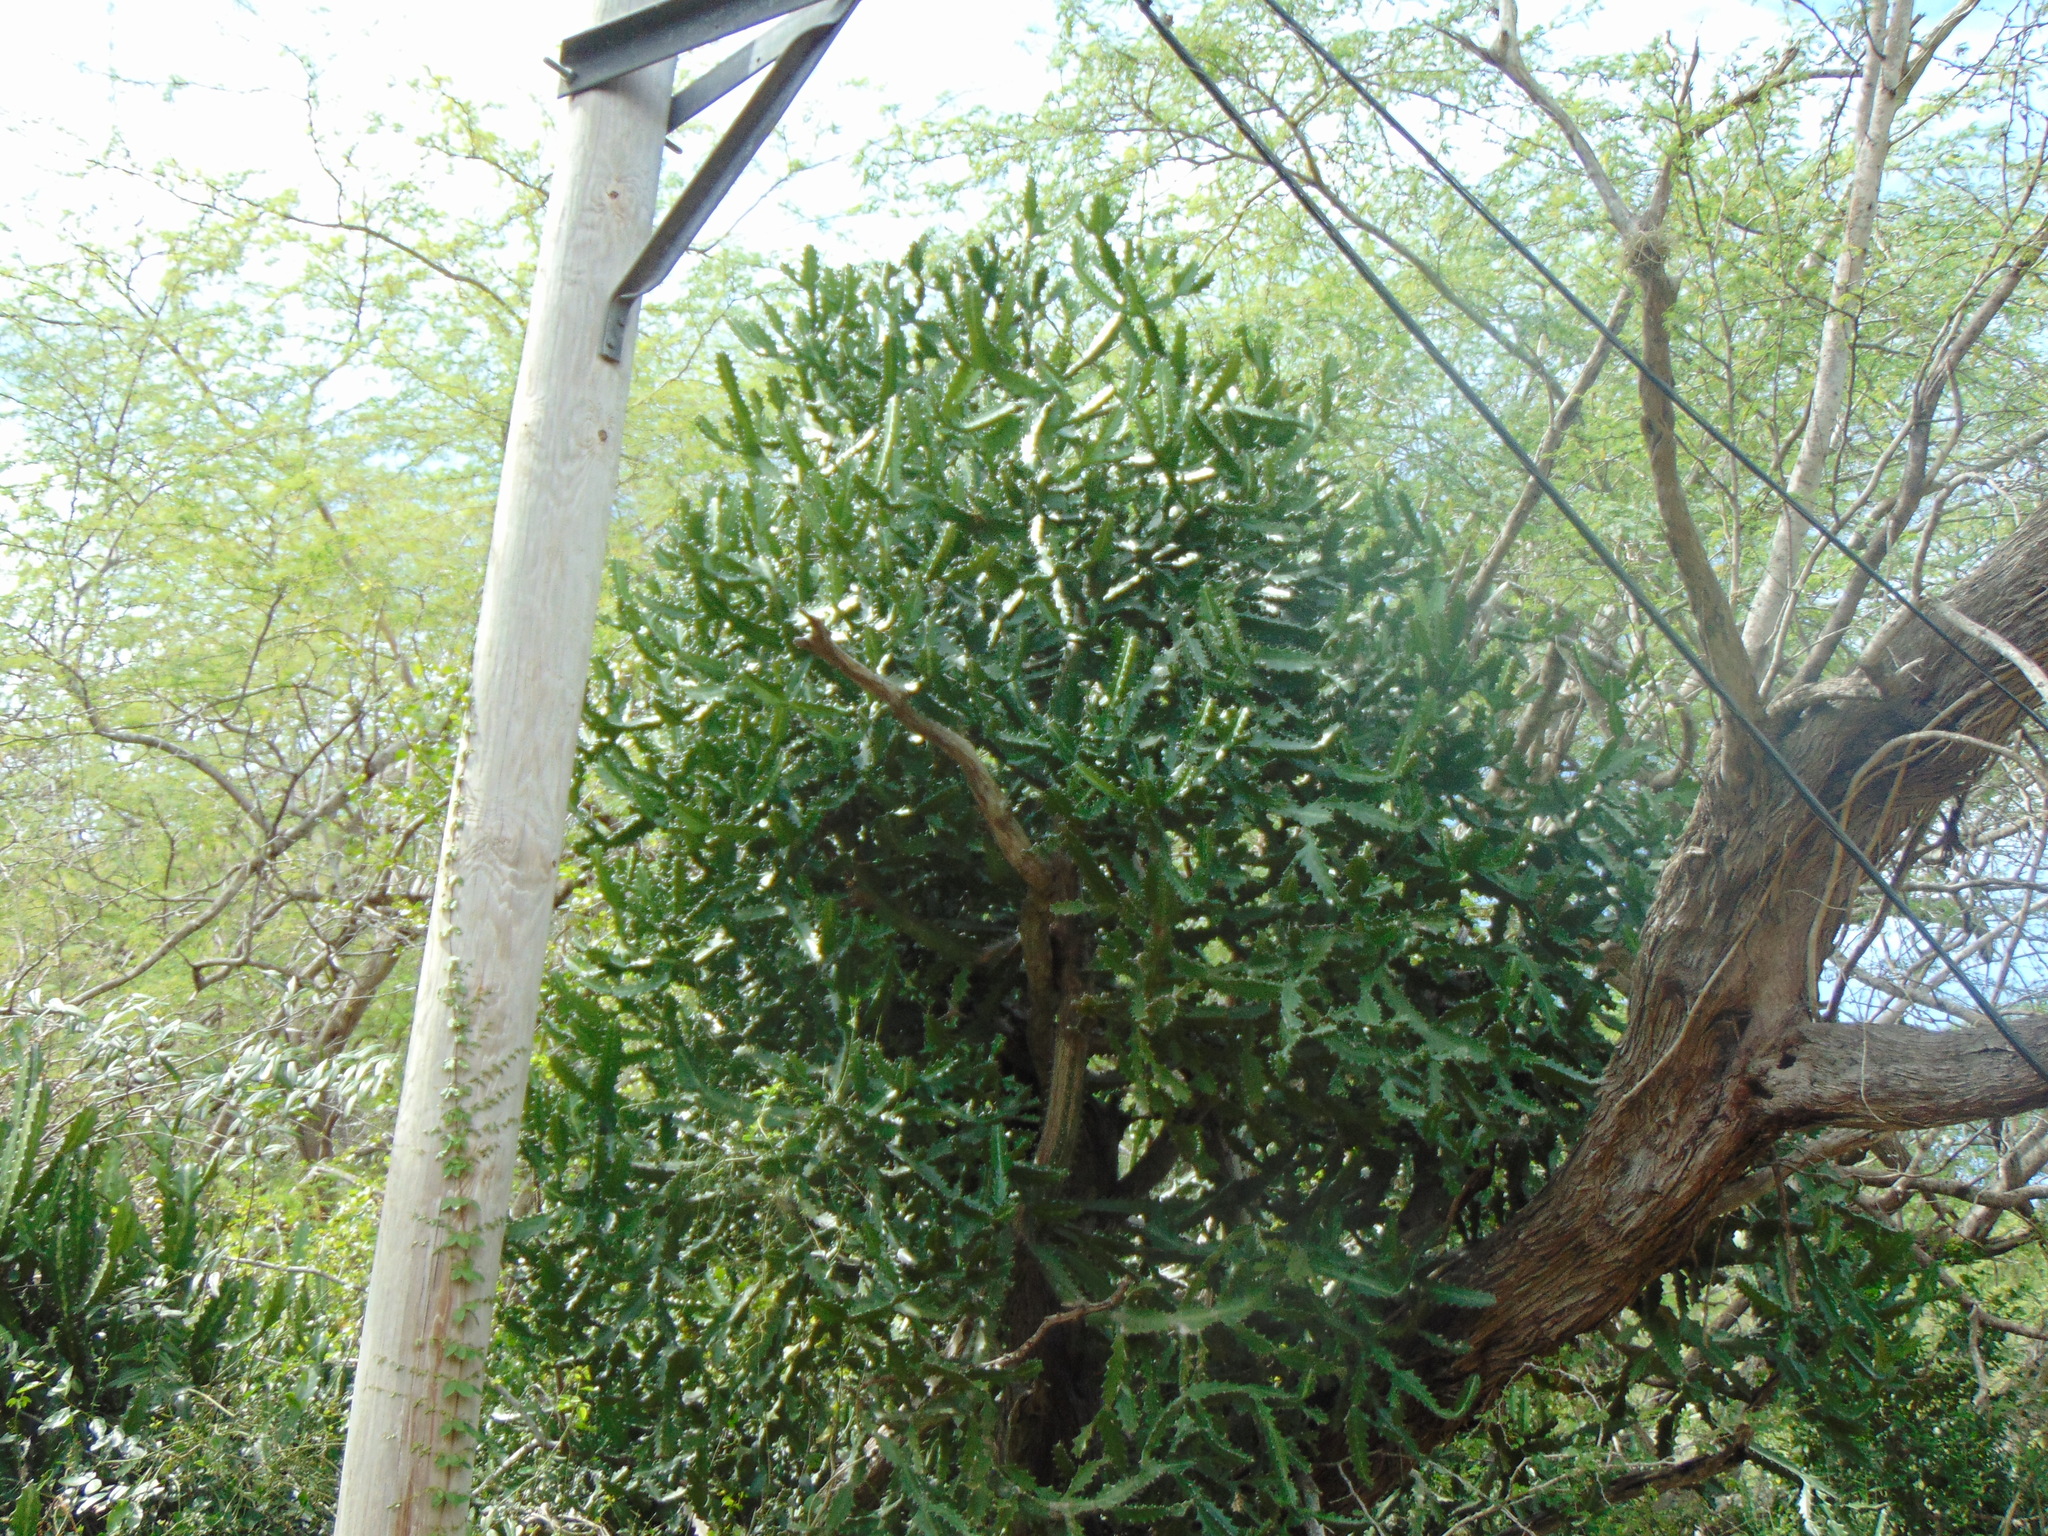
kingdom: Plantae
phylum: Tracheophyta
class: Magnoliopsida
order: Malpighiales
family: Euphorbiaceae
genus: Euphorbia
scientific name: Euphorbia lactea
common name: Mottled spurge
